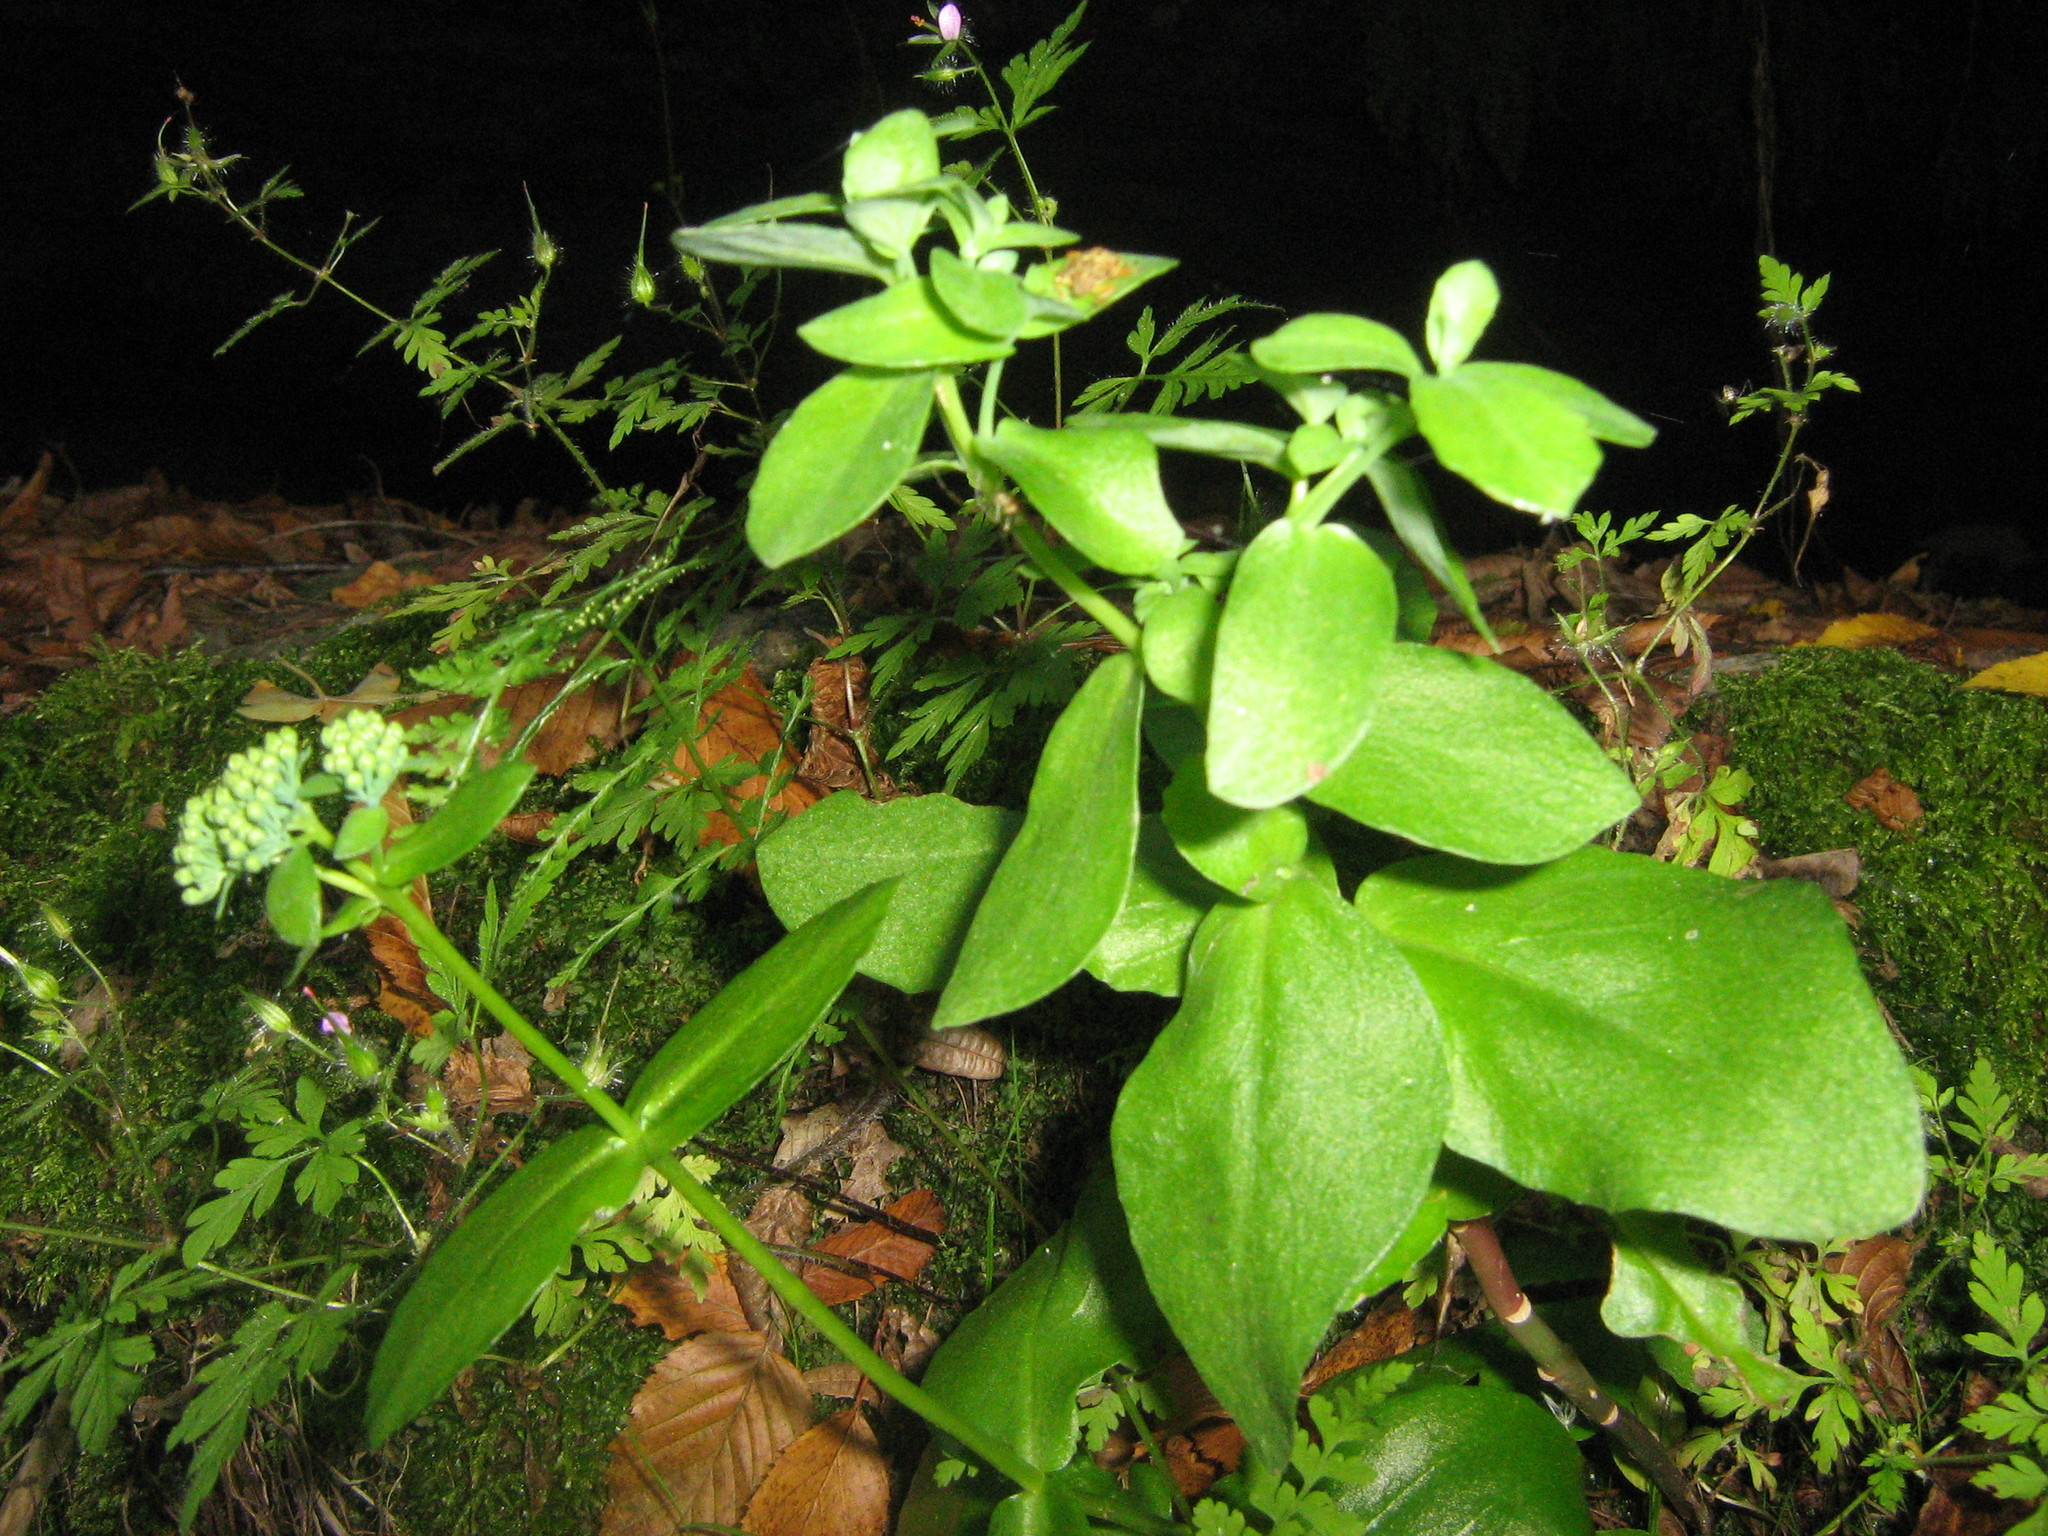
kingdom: Plantae
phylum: Tracheophyta
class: Magnoliopsida
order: Saxifragales
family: Crassulaceae
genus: Hylotelephium
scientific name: Hylotelephium maximum
